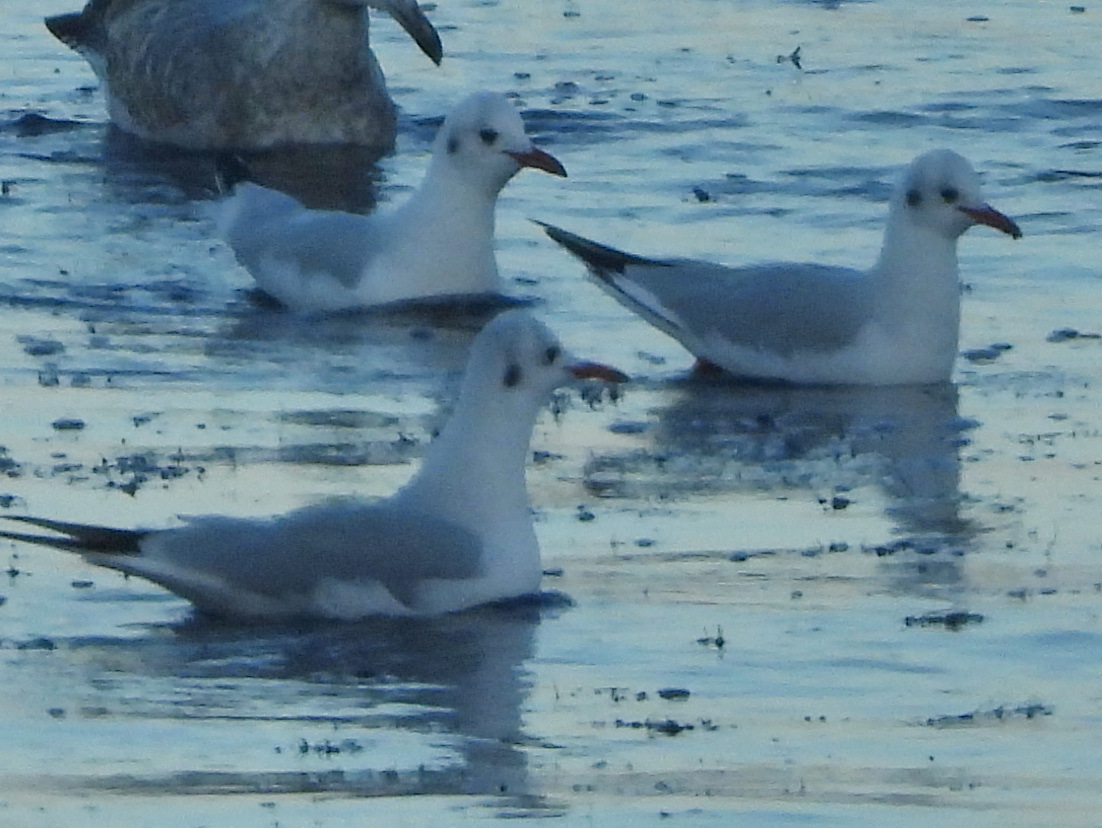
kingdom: Animalia
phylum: Chordata
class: Aves
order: Charadriiformes
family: Laridae
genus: Chroicocephalus
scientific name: Chroicocephalus ridibundus
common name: Black-headed gull
